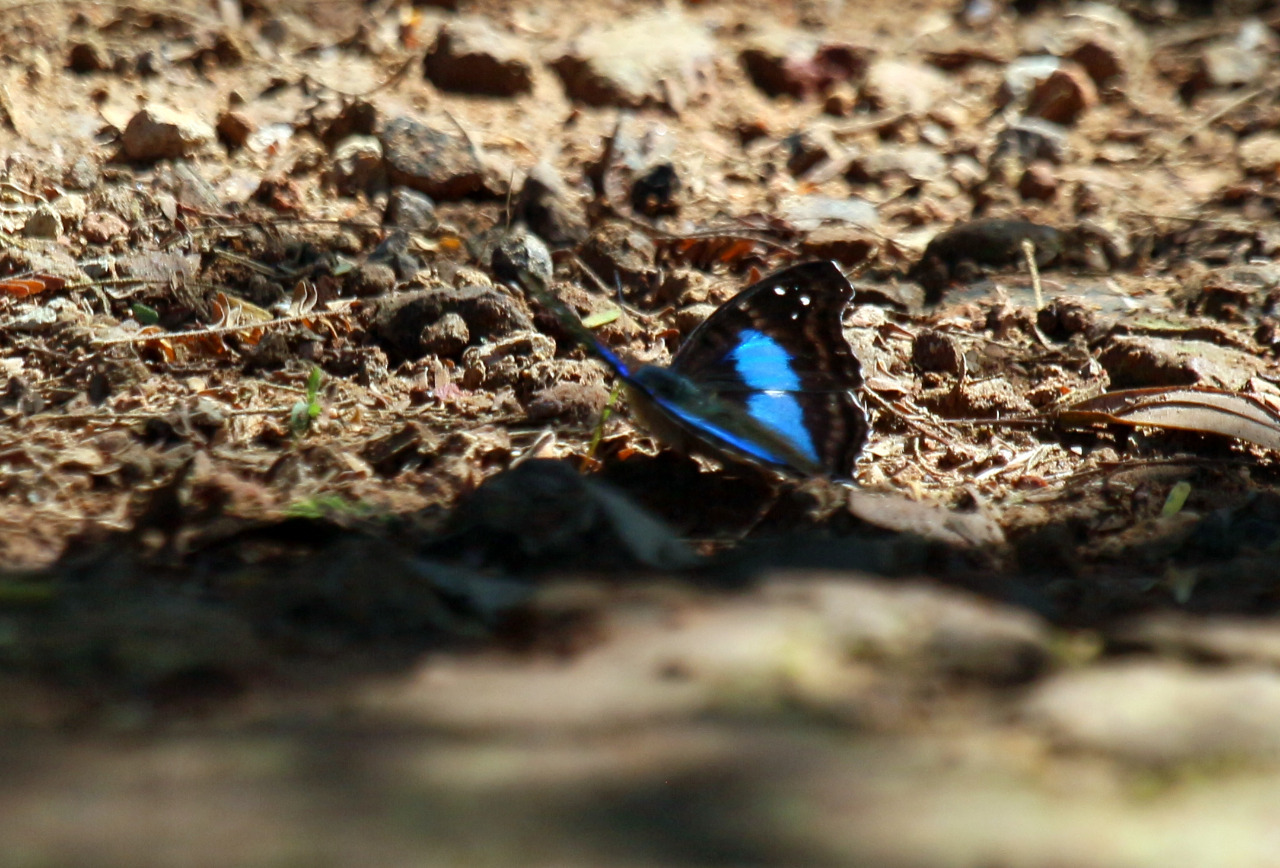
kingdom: Animalia
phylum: Arthropoda
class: Insecta
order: Lepidoptera
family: Nymphalidae
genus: Doxocopa
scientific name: Doxocopa laurentia
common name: Turquoise emperor
